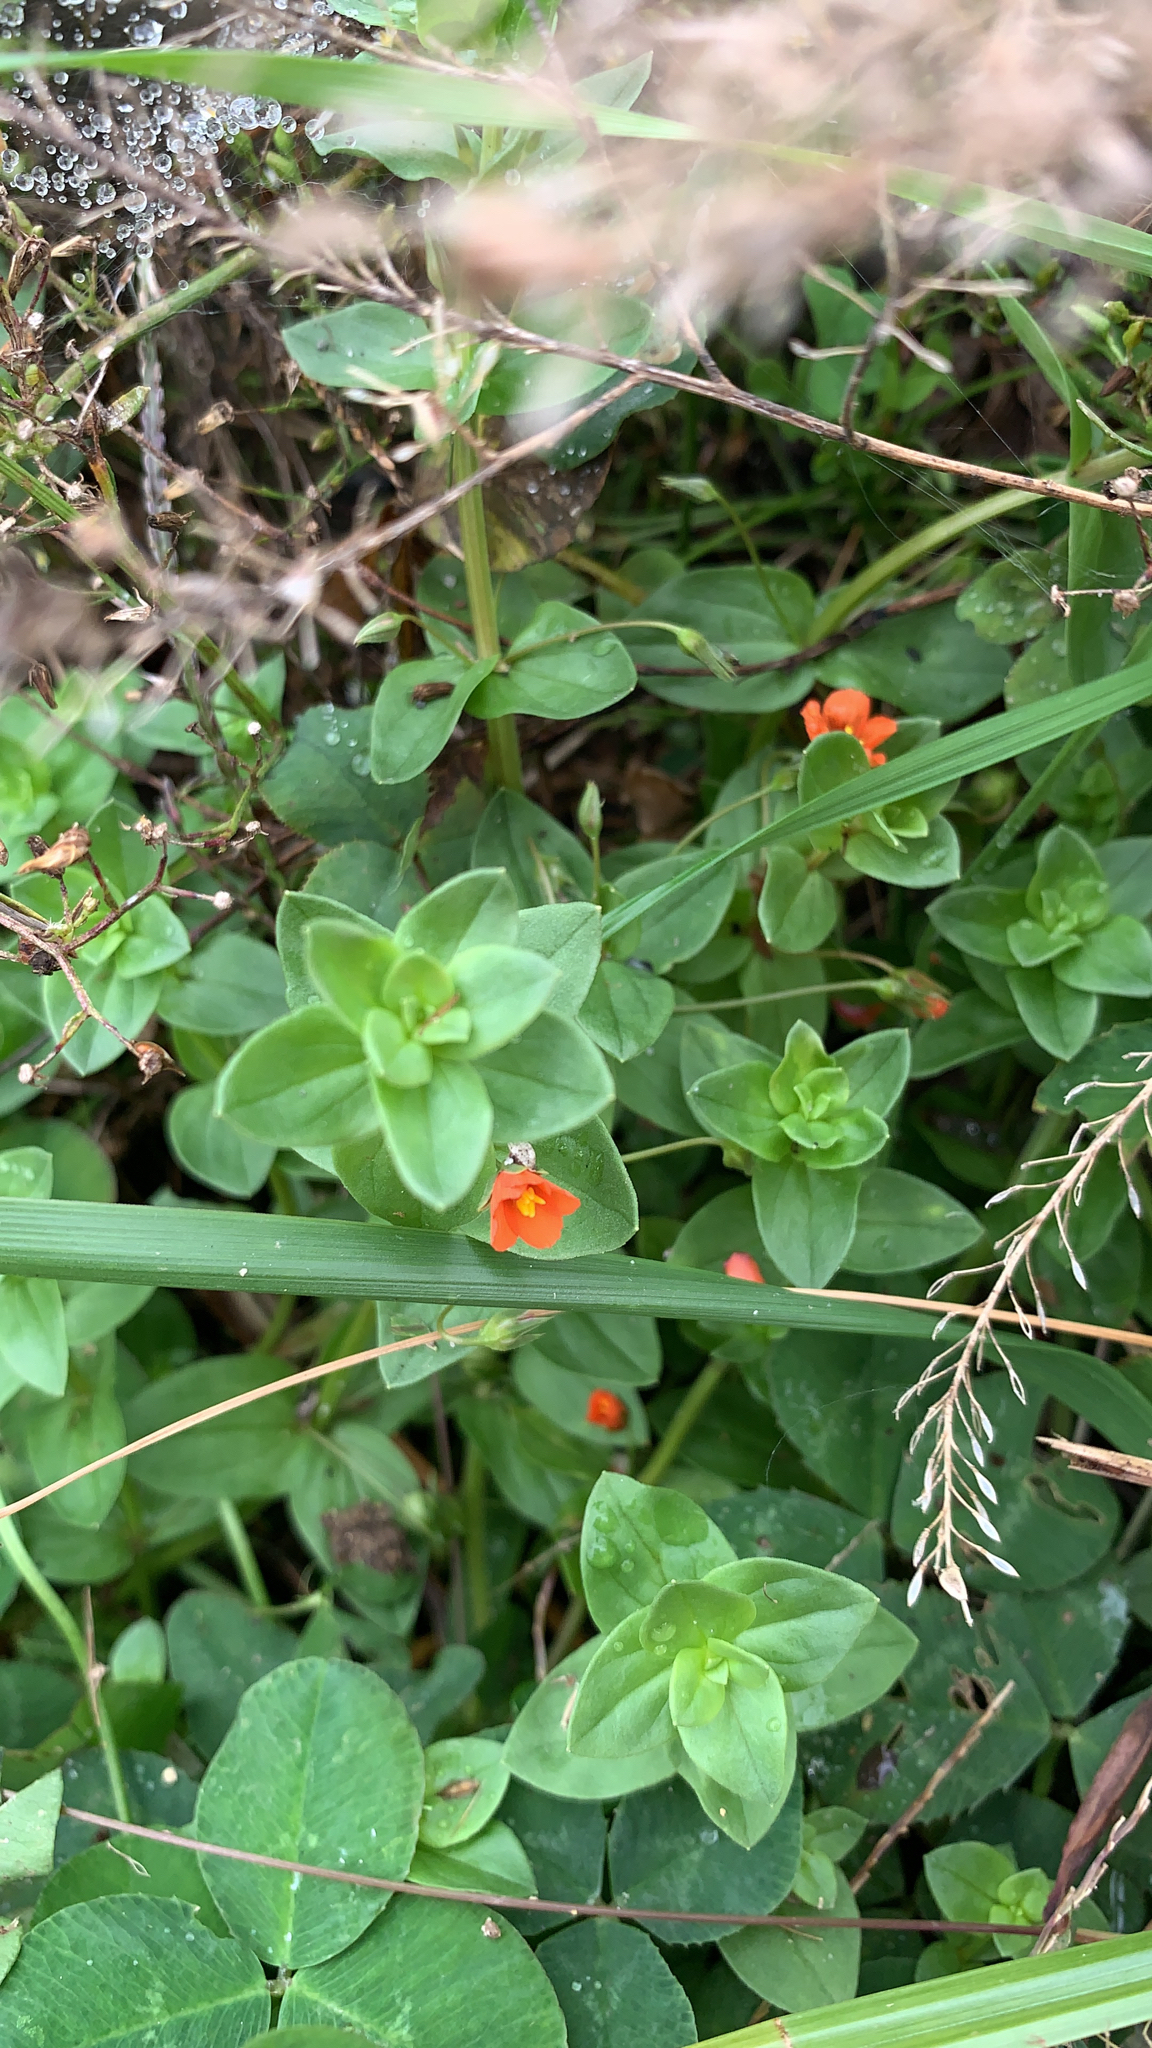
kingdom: Plantae
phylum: Tracheophyta
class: Magnoliopsida
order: Ericales
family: Primulaceae
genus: Lysimachia
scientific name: Lysimachia arvensis
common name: Scarlet pimpernel
